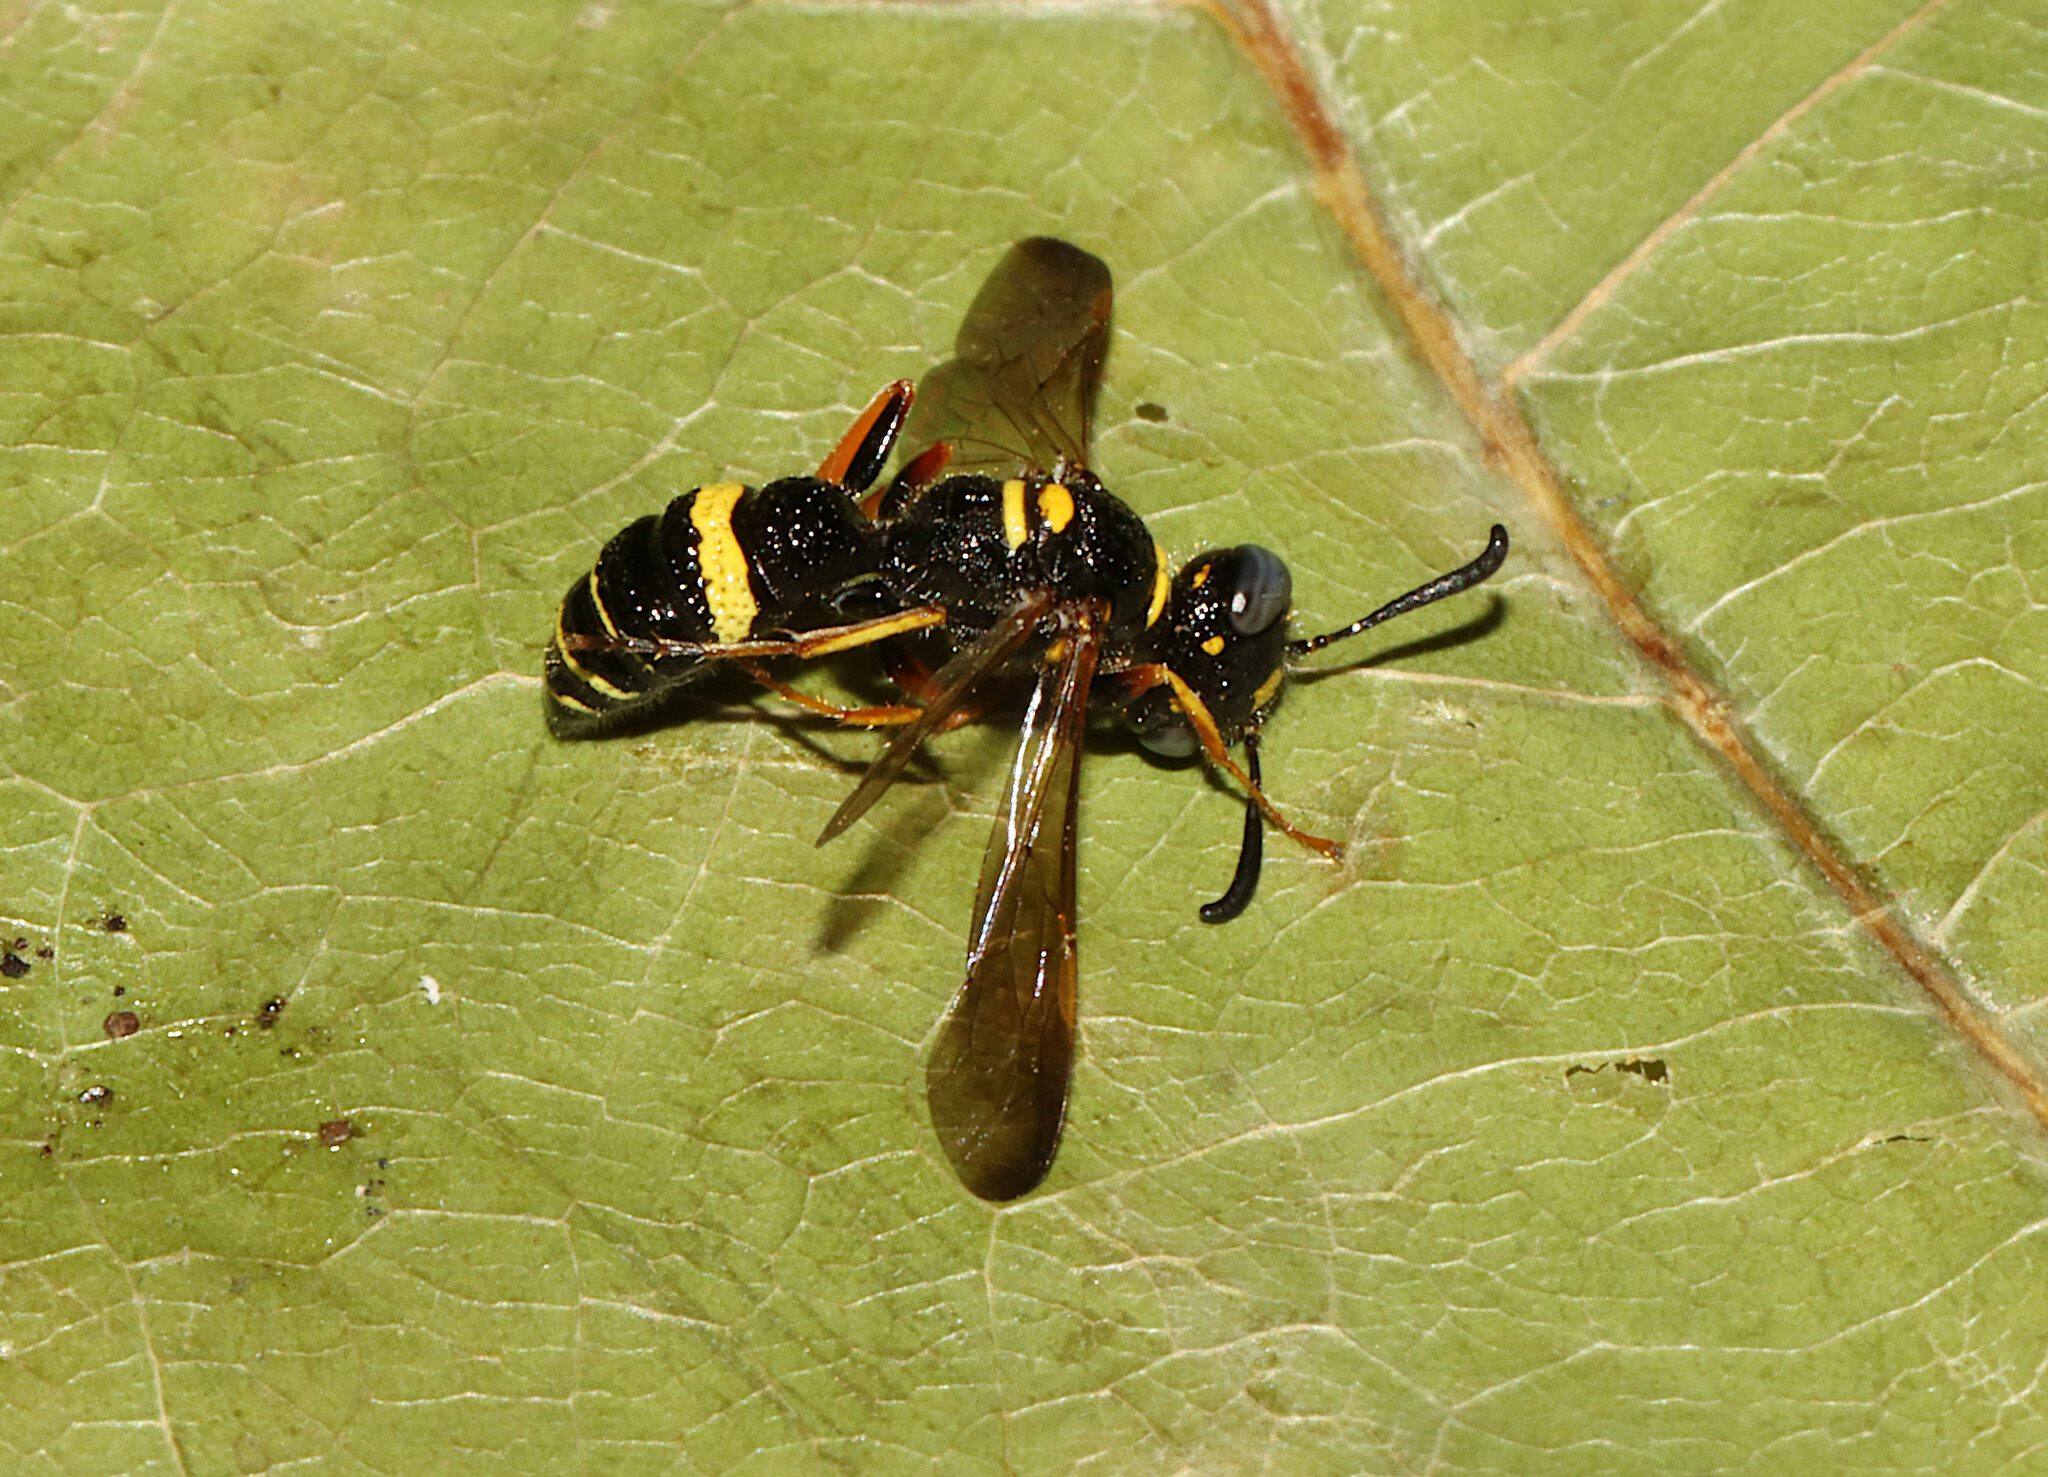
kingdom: Animalia
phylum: Arthropoda
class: Insecta
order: Hymenoptera
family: Crabronidae
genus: Philanthus
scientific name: Philanthus gibbosus
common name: Humped beewolf
